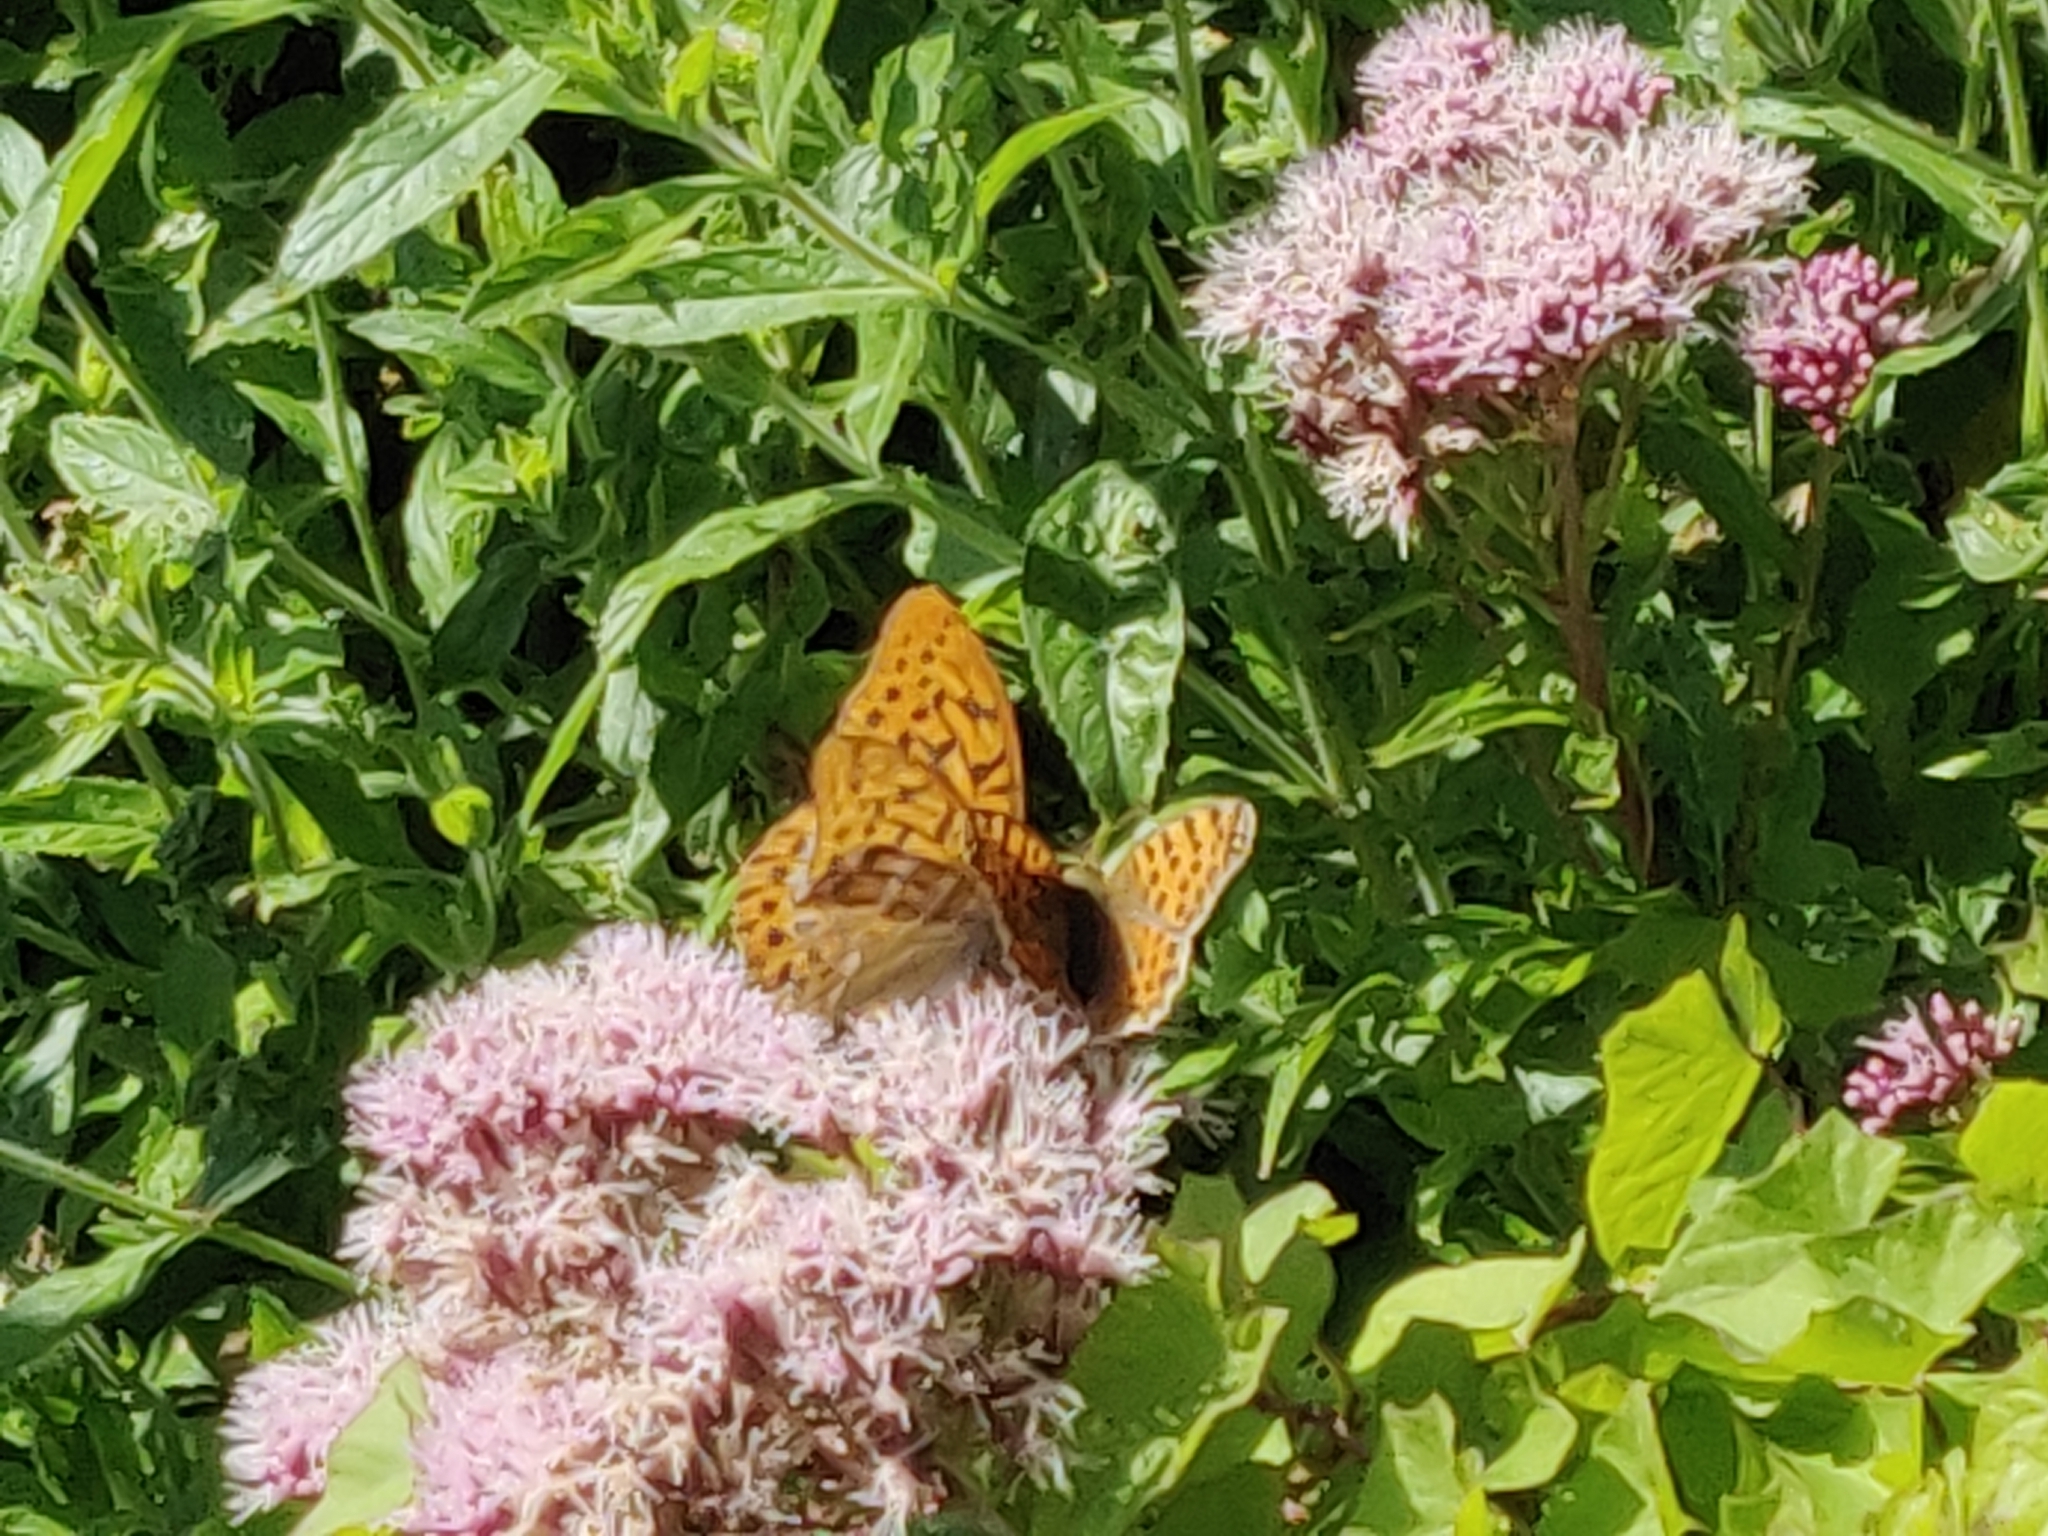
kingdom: Animalia
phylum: Arthropoda
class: Insecta
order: Lepidoptera
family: Nymphalidae
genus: Issoria
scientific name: Issoria lathonia
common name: Queen of spain fritillary
